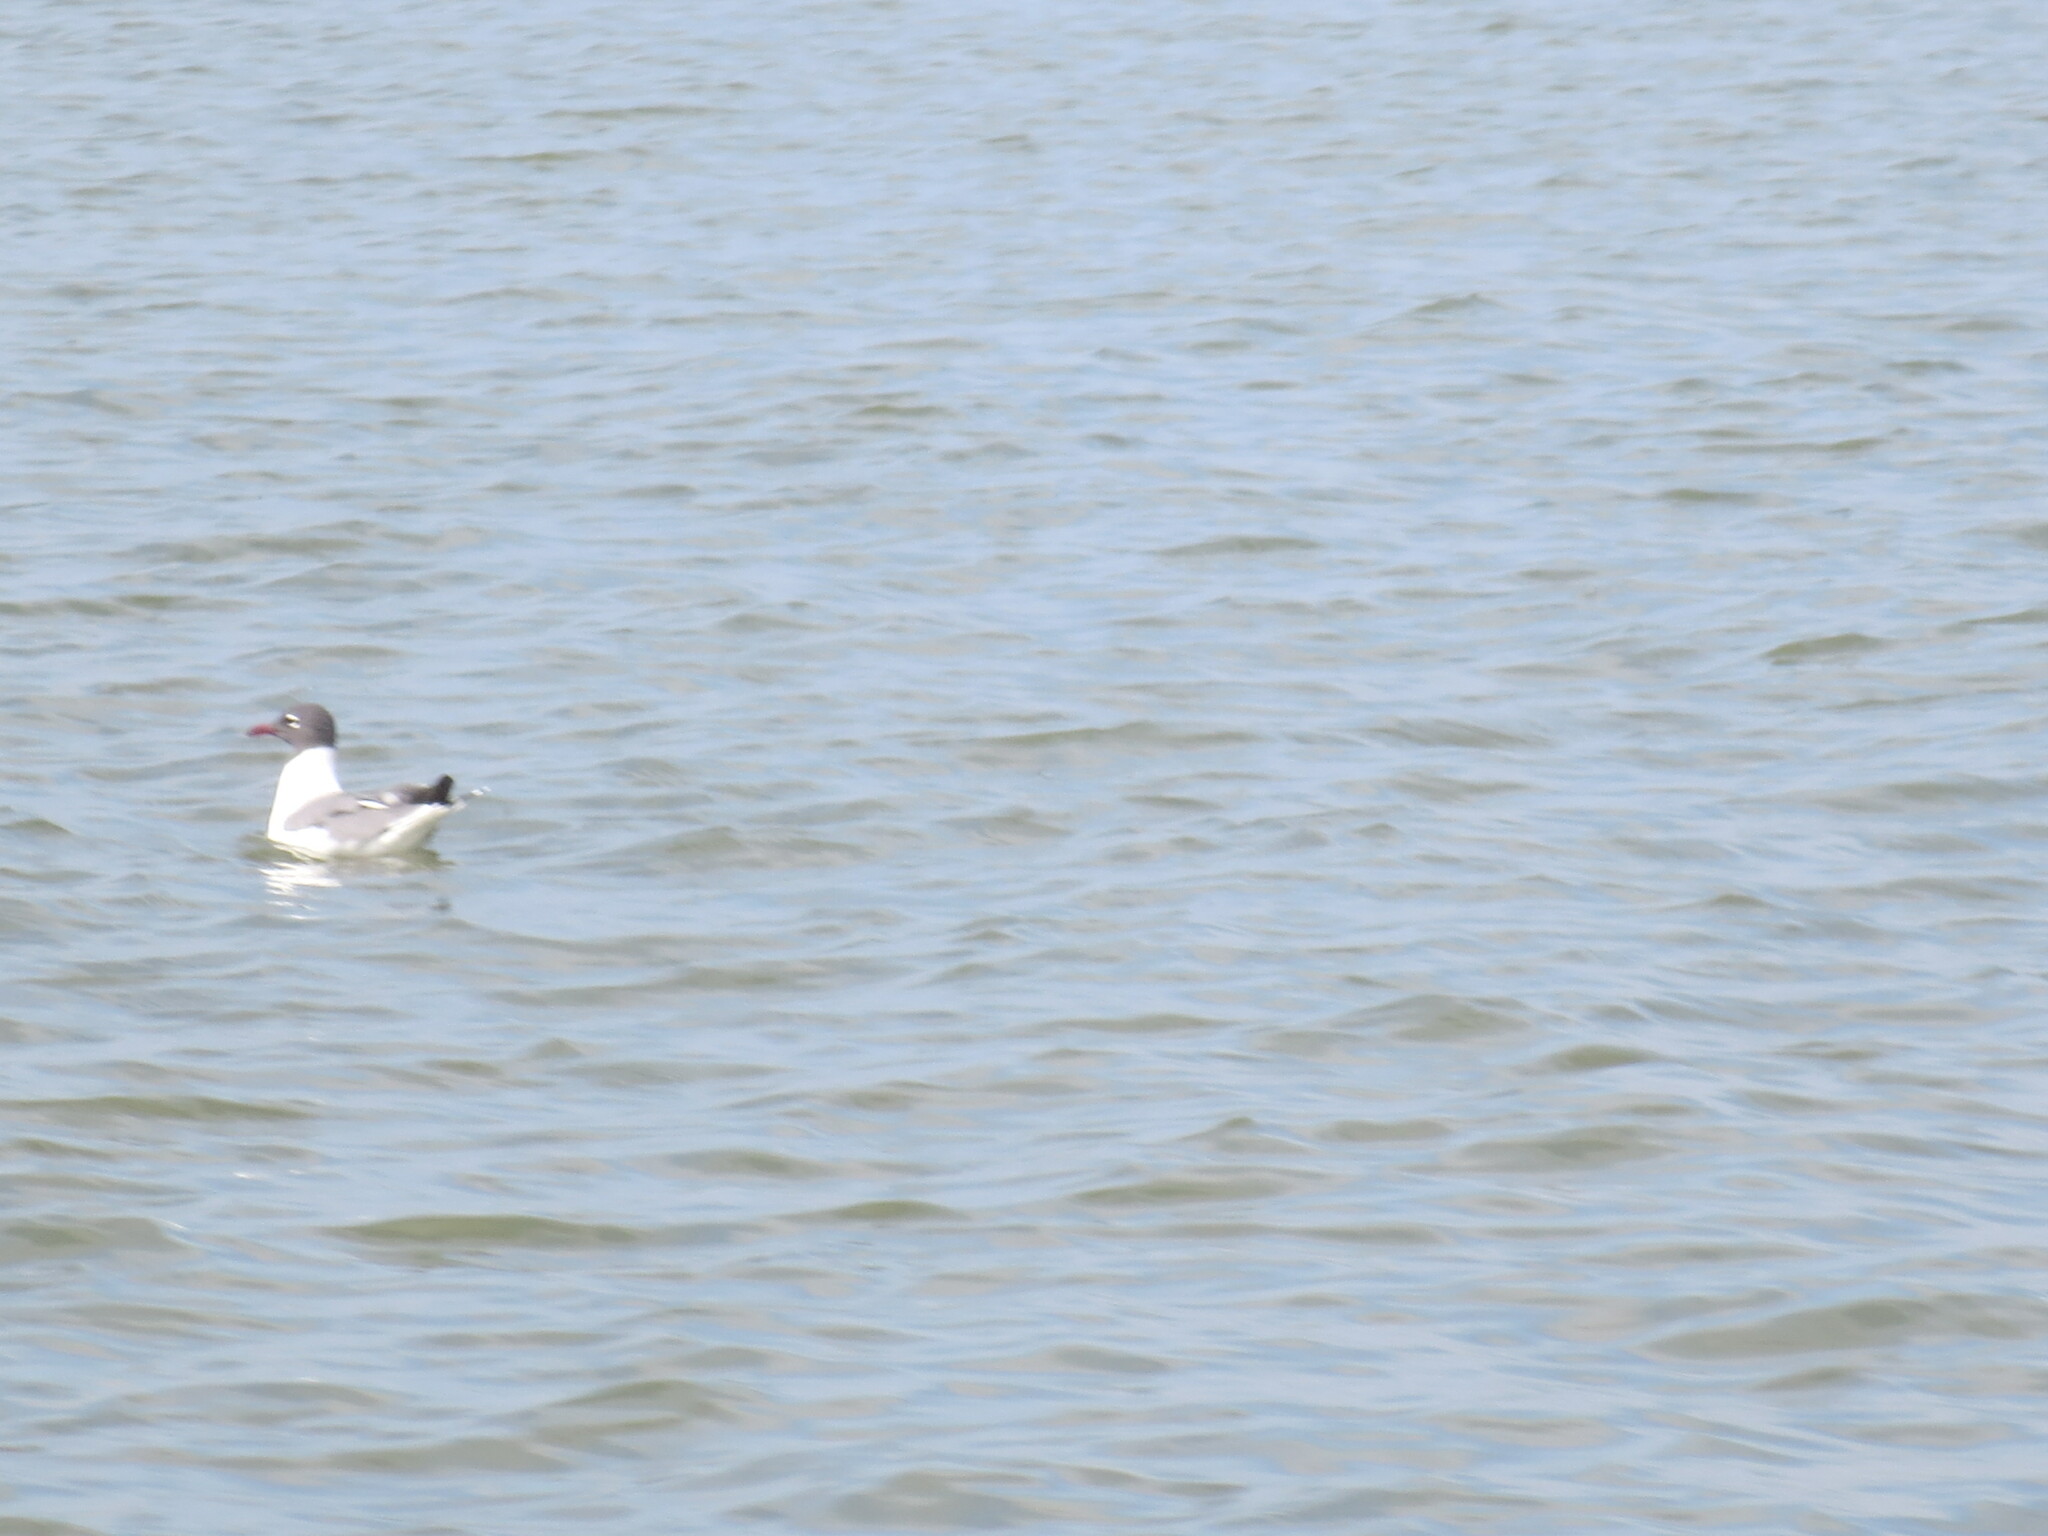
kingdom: Animalia
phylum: Chordata
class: Aves
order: Charadriiformes
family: Laridae
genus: Leucophaeus
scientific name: Leucophaeus atricilla
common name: Laughing gull
